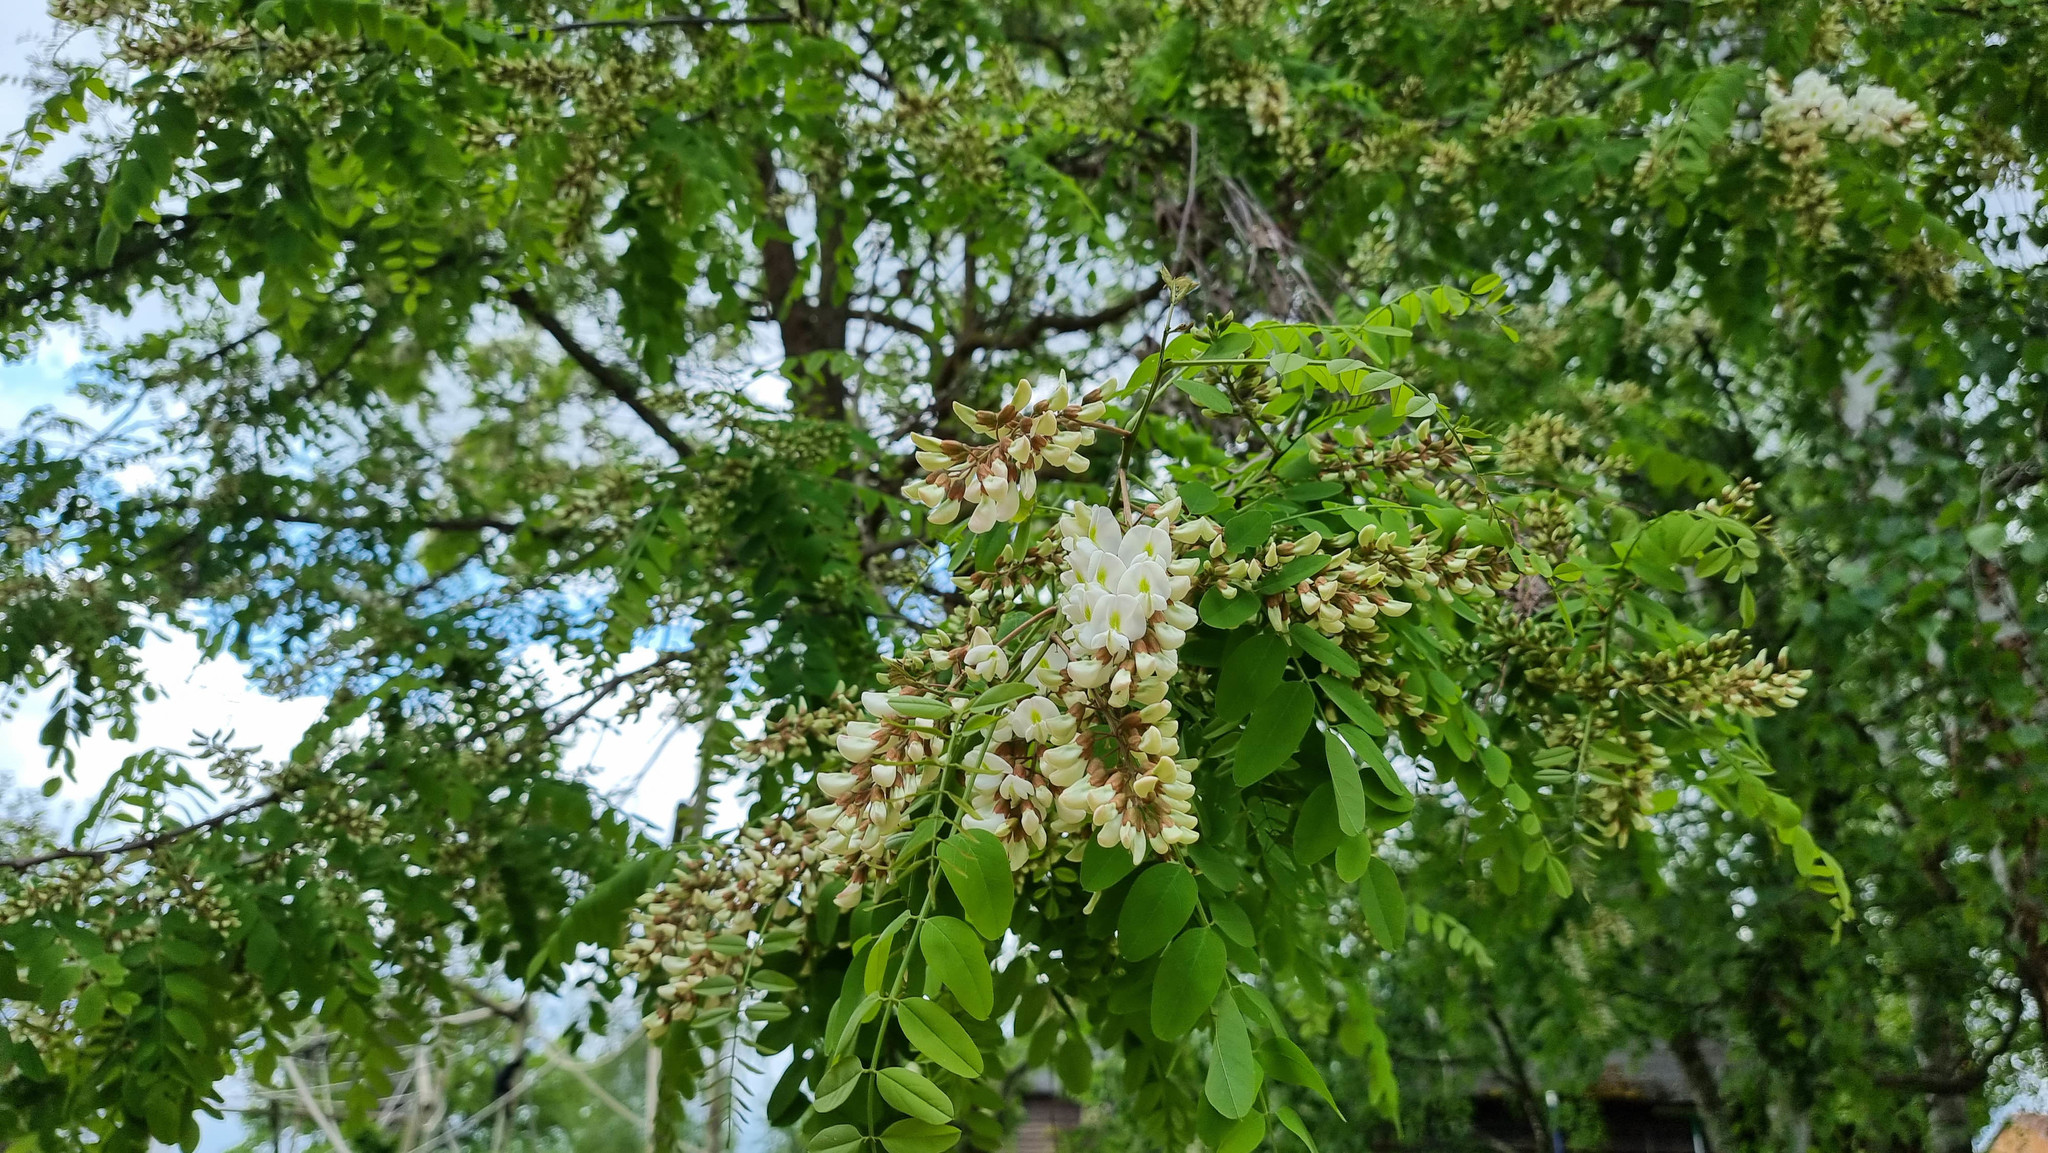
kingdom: Plantae
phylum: Tracheophyta
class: Magnoliopsida
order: Fabales
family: Fabaceae
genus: Robinia
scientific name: Robinia pseudoacacia
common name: Black locust
